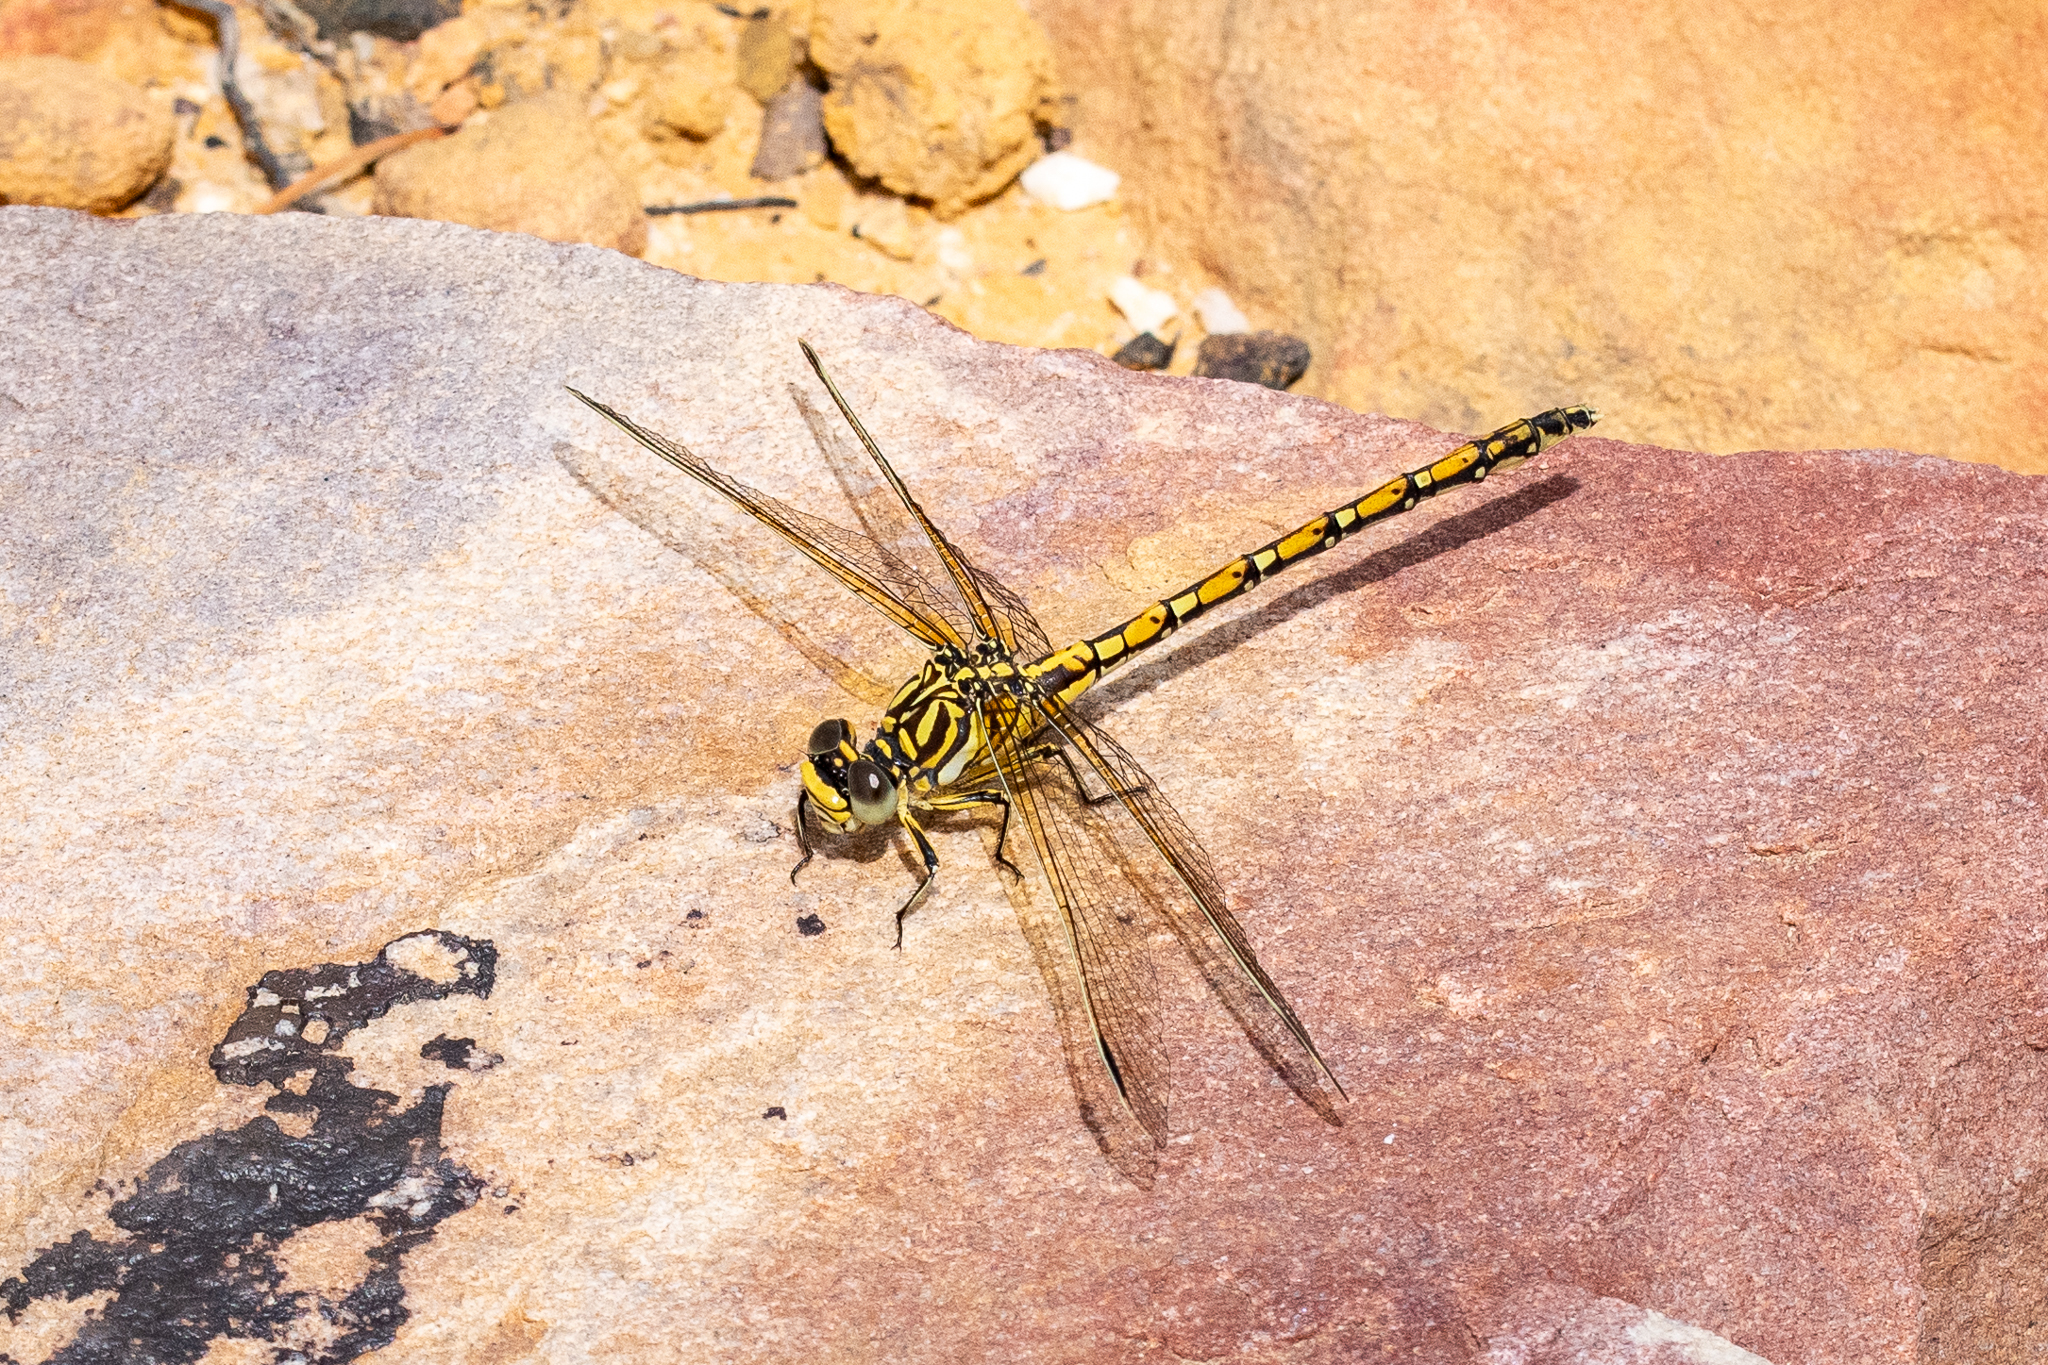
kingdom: Animalia
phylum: Arthropoda
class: Insecta
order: Odonata
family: Gomphidae
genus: Ceratogomphus
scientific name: Ceratogomphus pictus
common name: Common thorntail
